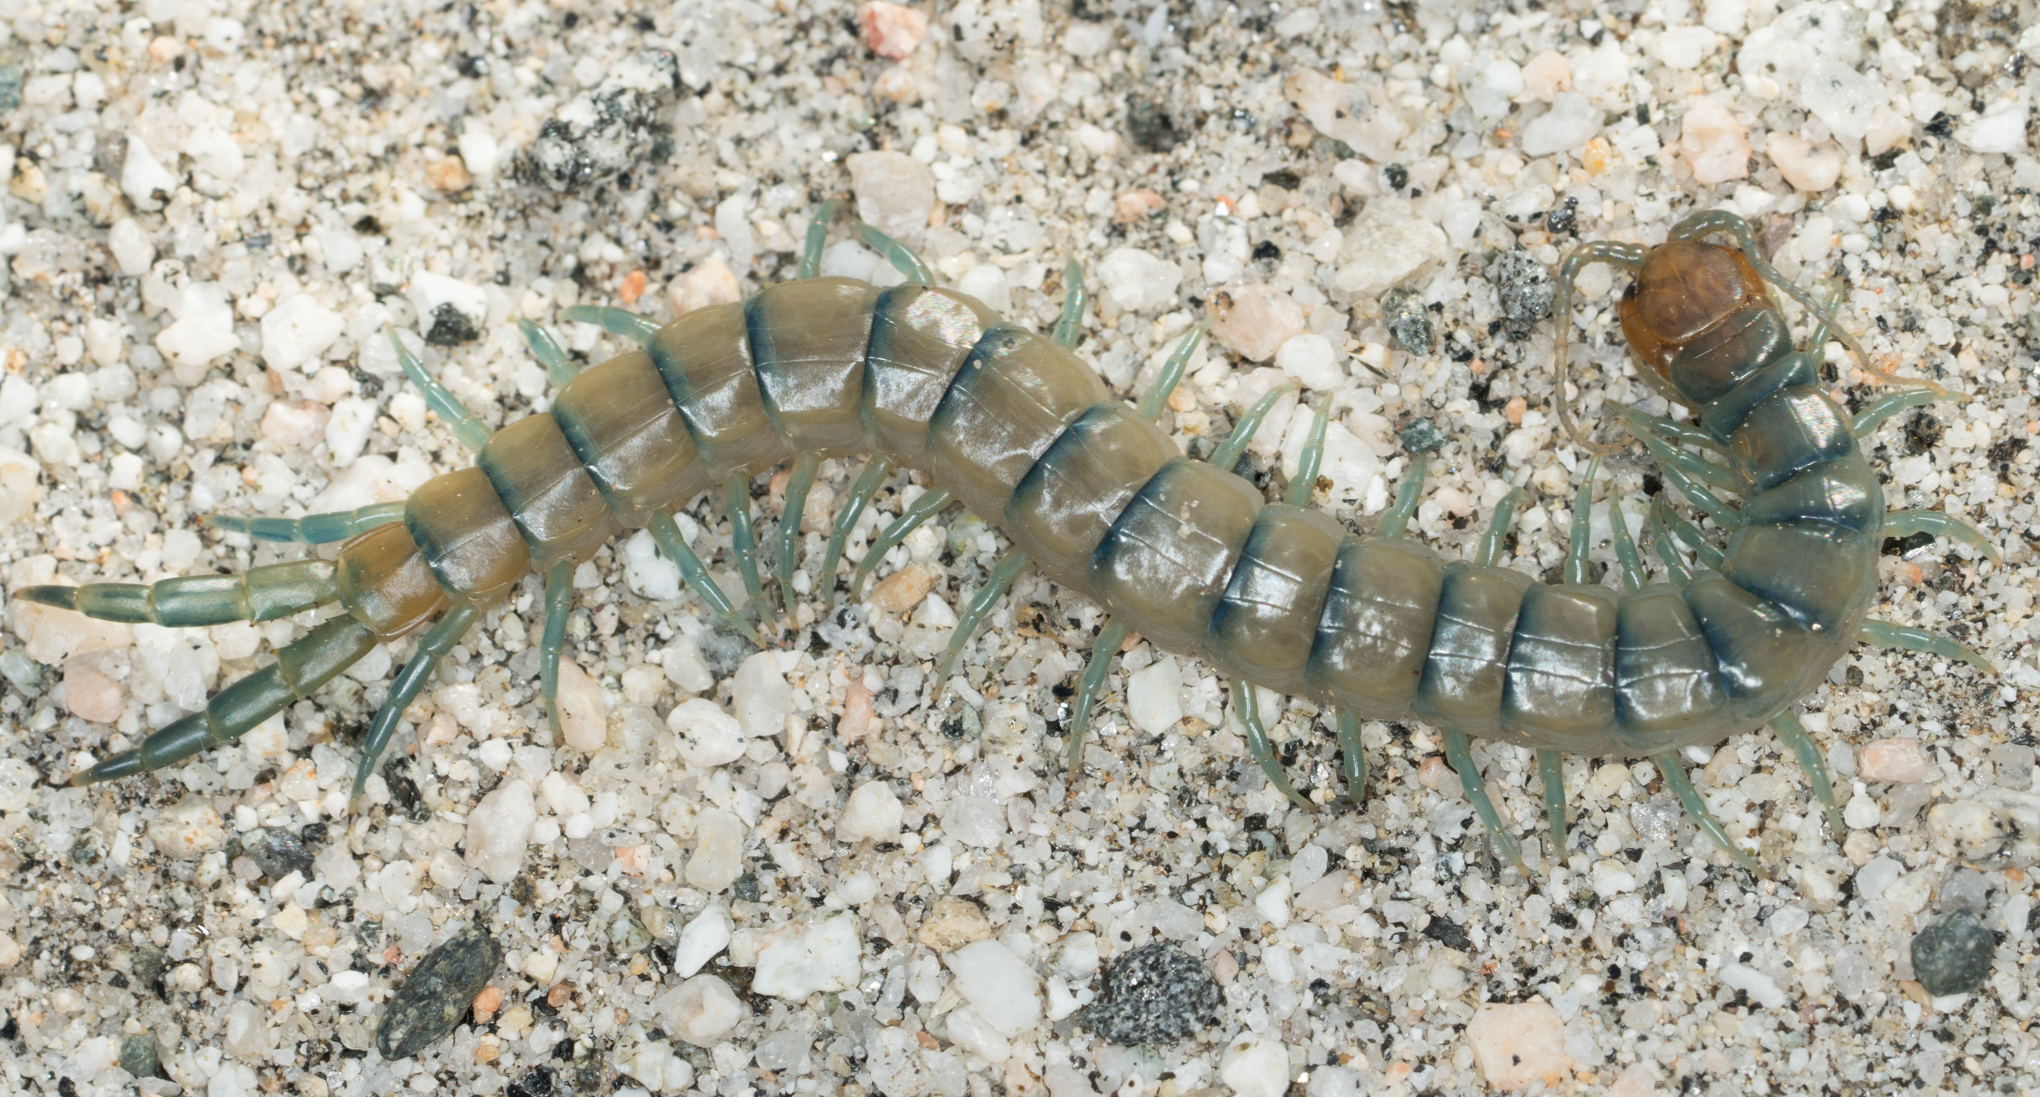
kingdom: Animalia
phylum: Arthropoda
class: Chilopoda
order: Scolopendromorpha
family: Scolopendridae
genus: Scolopendra
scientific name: Scolopendra polymorpha
